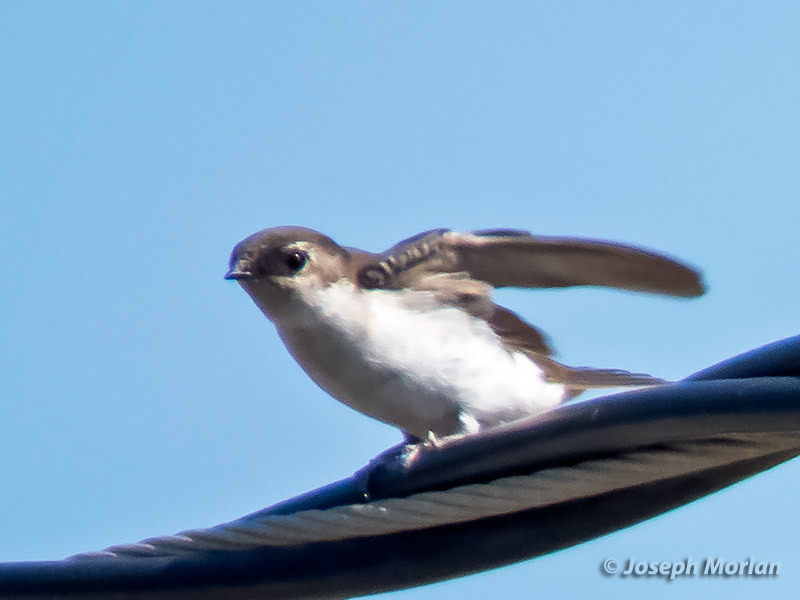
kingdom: Animalia
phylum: Chordata
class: Aves
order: Passeriformes
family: Hirundinidae
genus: Tachycineta
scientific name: Tachycineta thalassina
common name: Violet-green swallow
